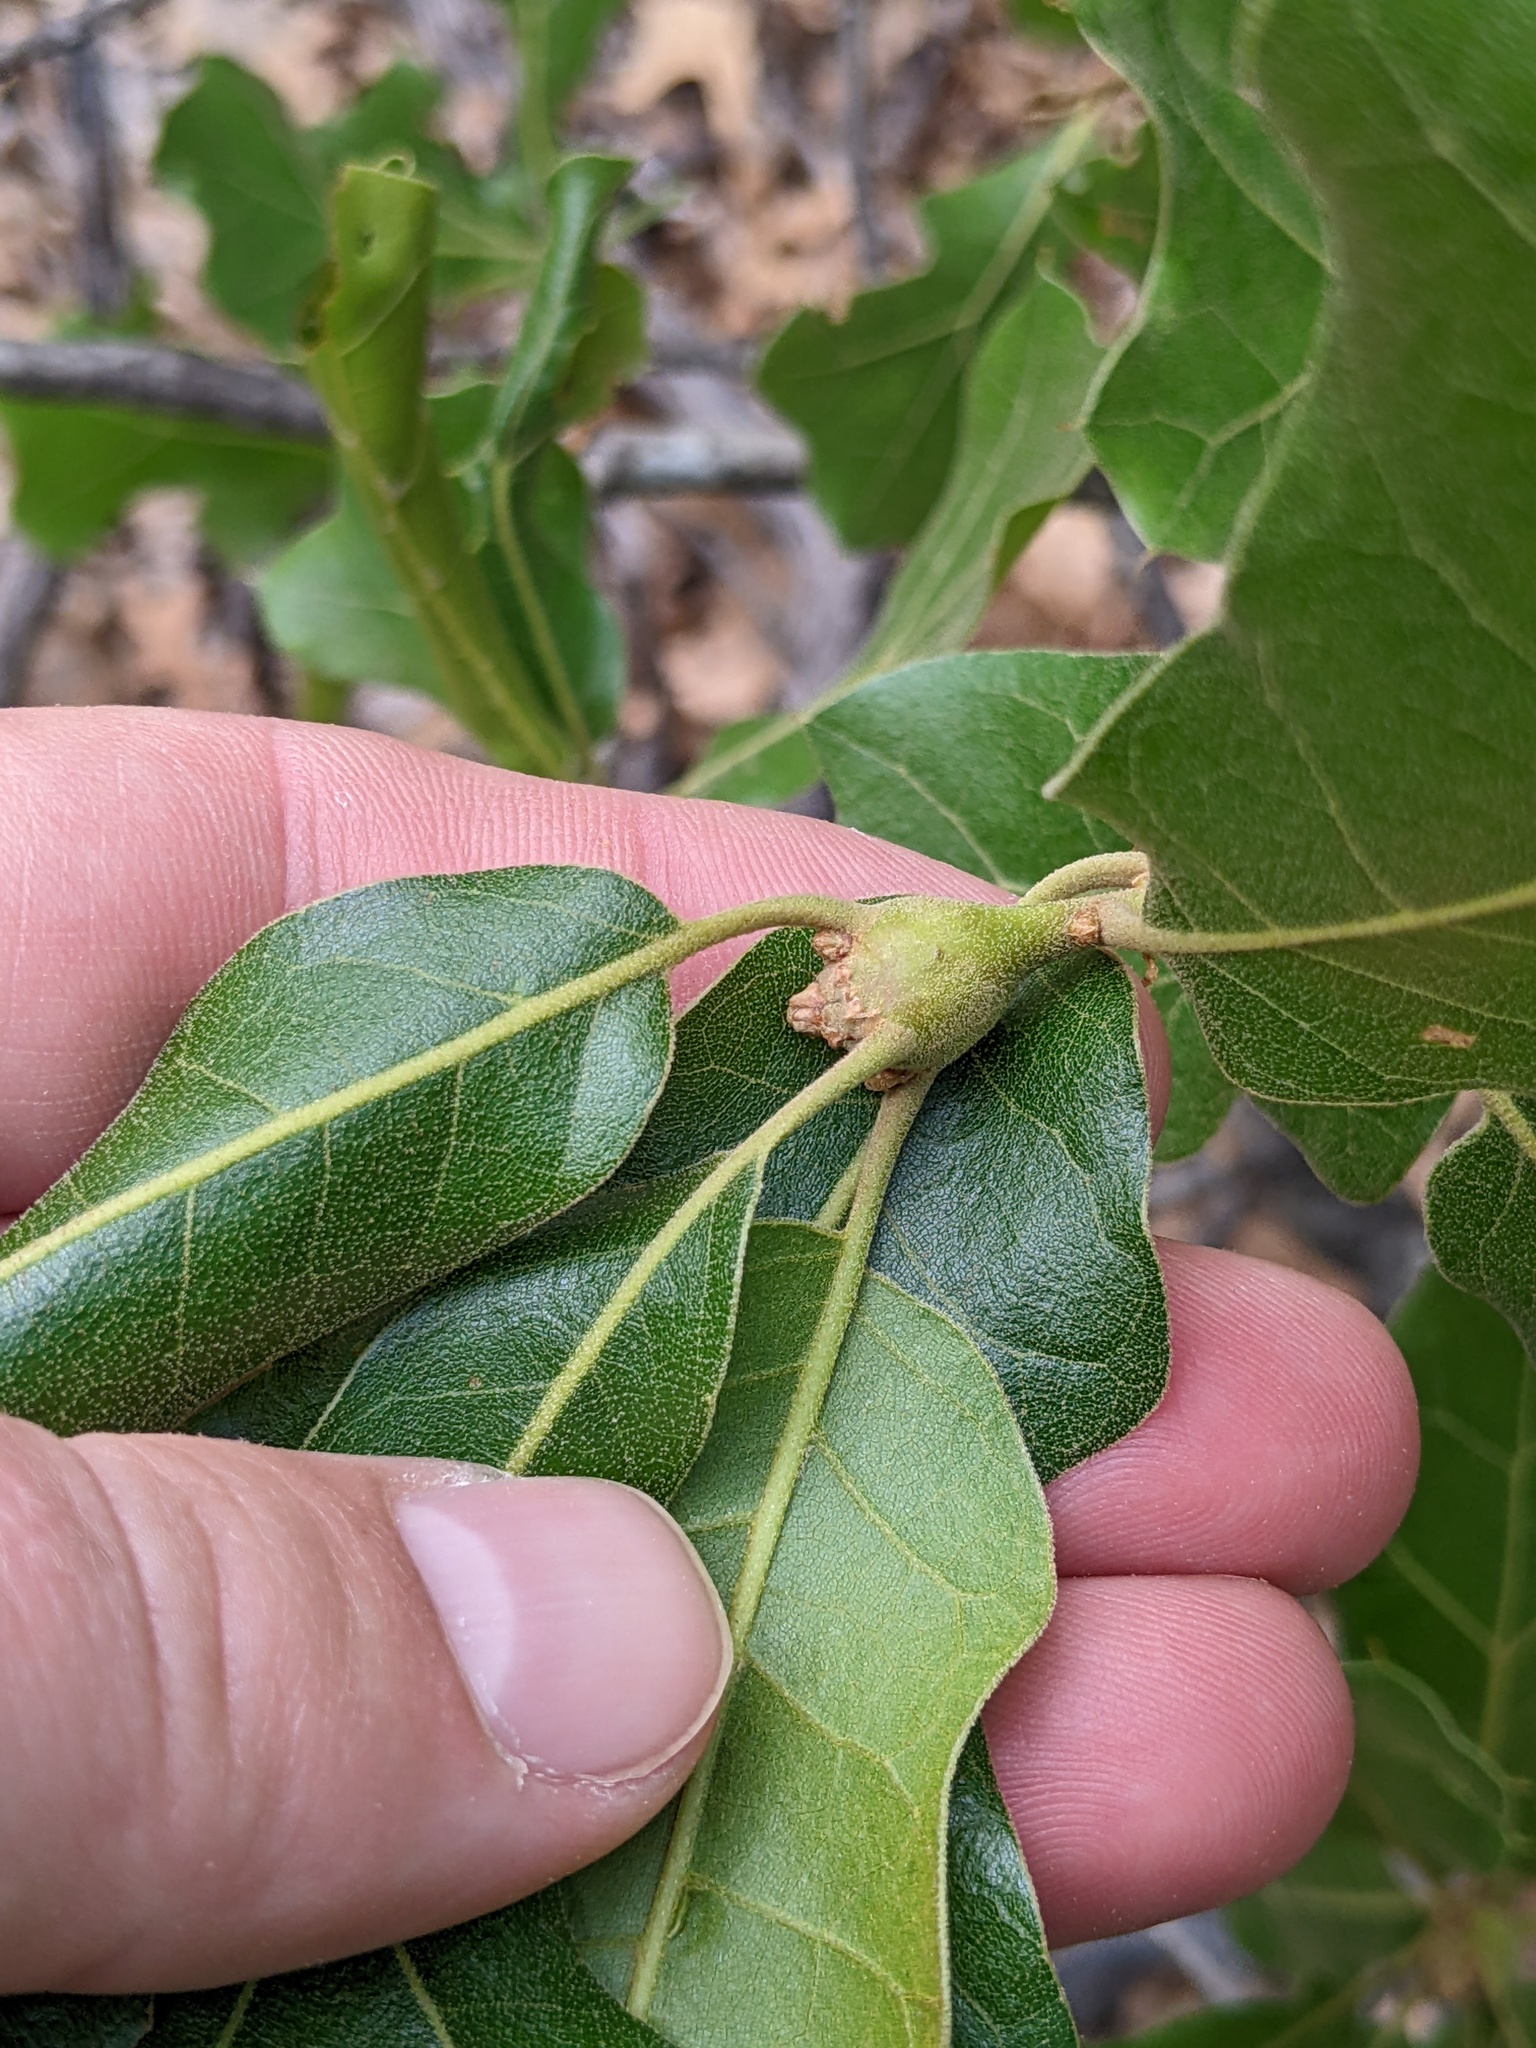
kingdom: Animalia
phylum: Arthropoda
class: Insecta
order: Hymenoptera
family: Cynipidae
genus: Zapatella
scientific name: Zapatella quercusphellos
